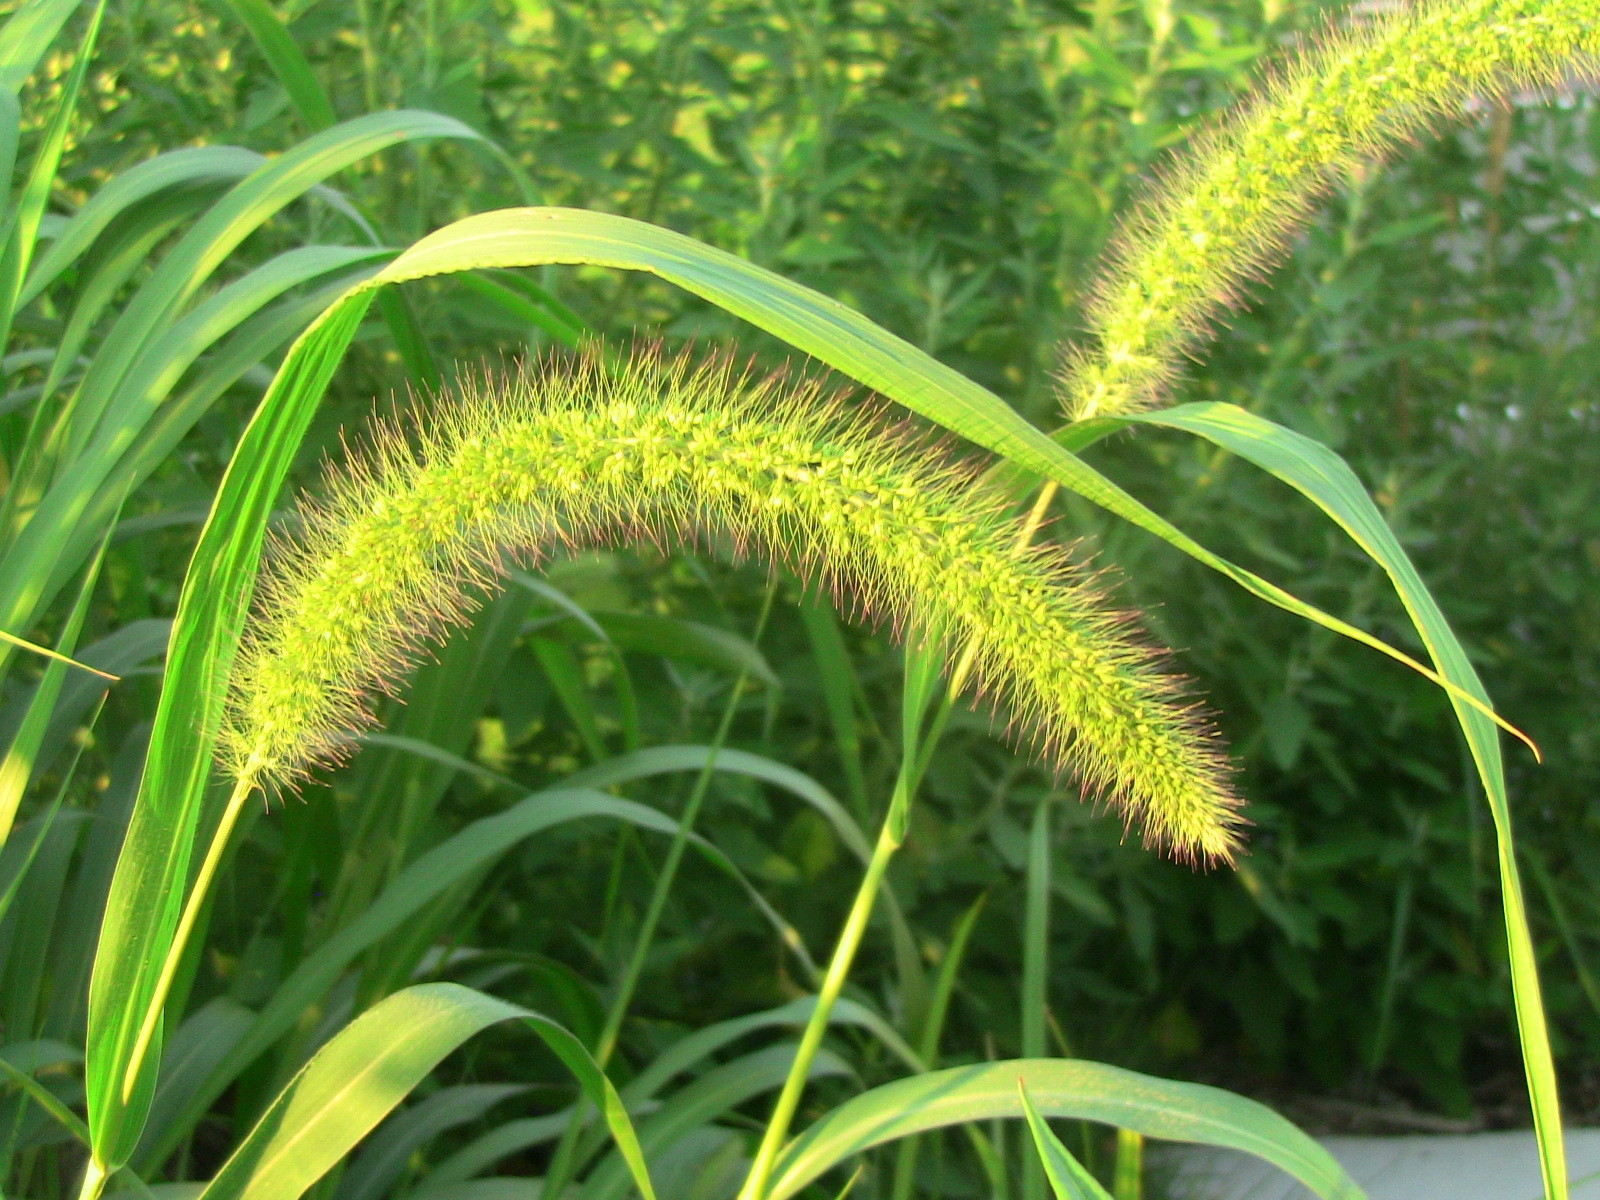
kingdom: Plantae
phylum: Tracheophyta
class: Liliopsida
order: Poales
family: Poaceae
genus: Setaria
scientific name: Setaria faberi
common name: Nodding bristle-grass
